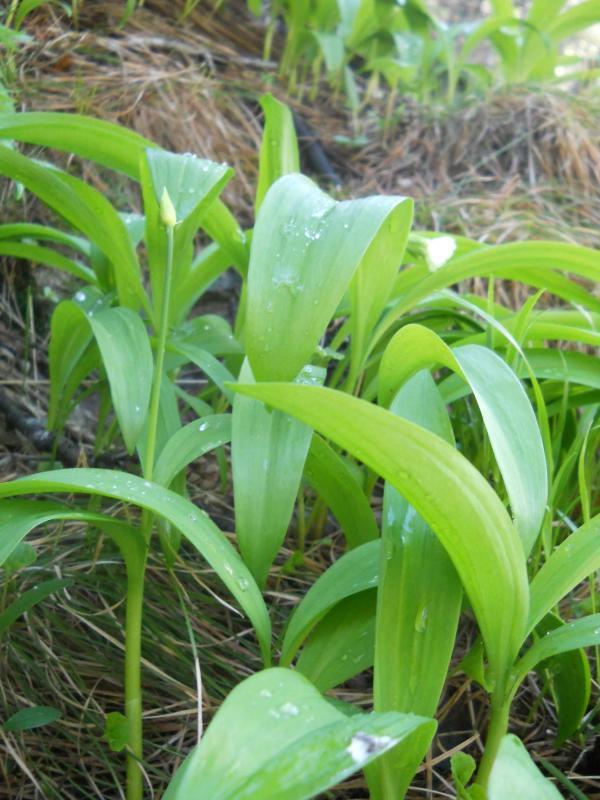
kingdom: Plantae
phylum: Tracheophyta
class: Liliopsida
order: Asparagales
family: Amaryllidaceae
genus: Allium
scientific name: Allium victorialis
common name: Alpine leek
